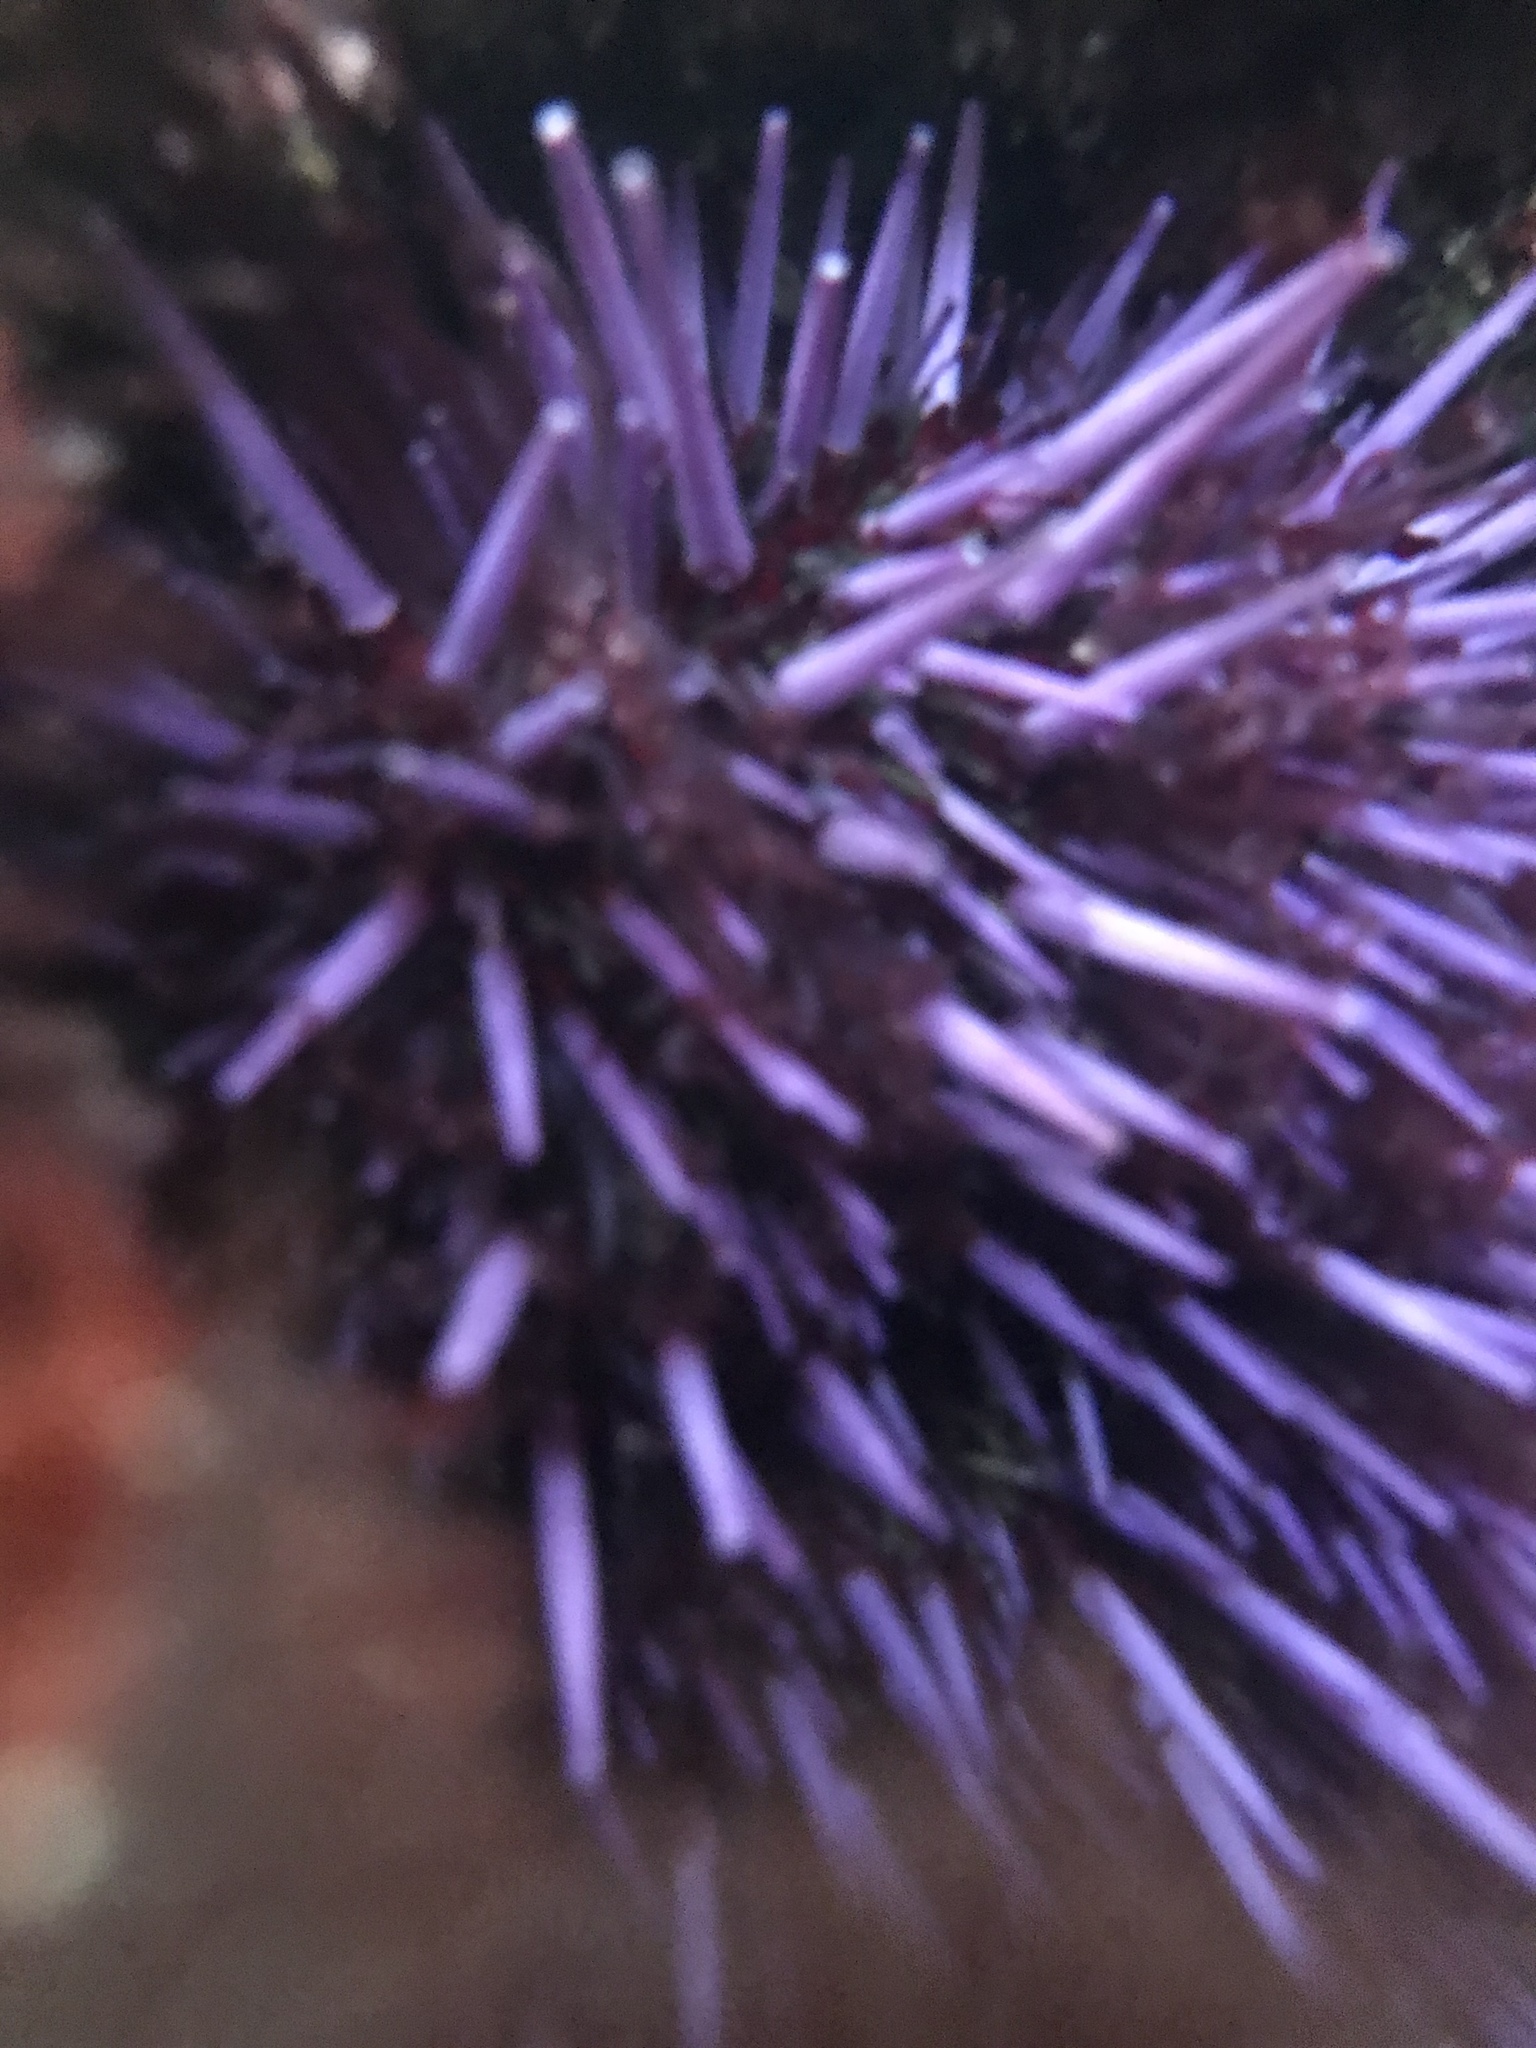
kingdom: Animalia
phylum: Echinodermata
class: Echinoidea
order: Camarodonta
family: Strongylocentrotidae
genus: Strongylocentrotus
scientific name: Strongylocentrotus purpuratus
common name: Purple sea urchin
